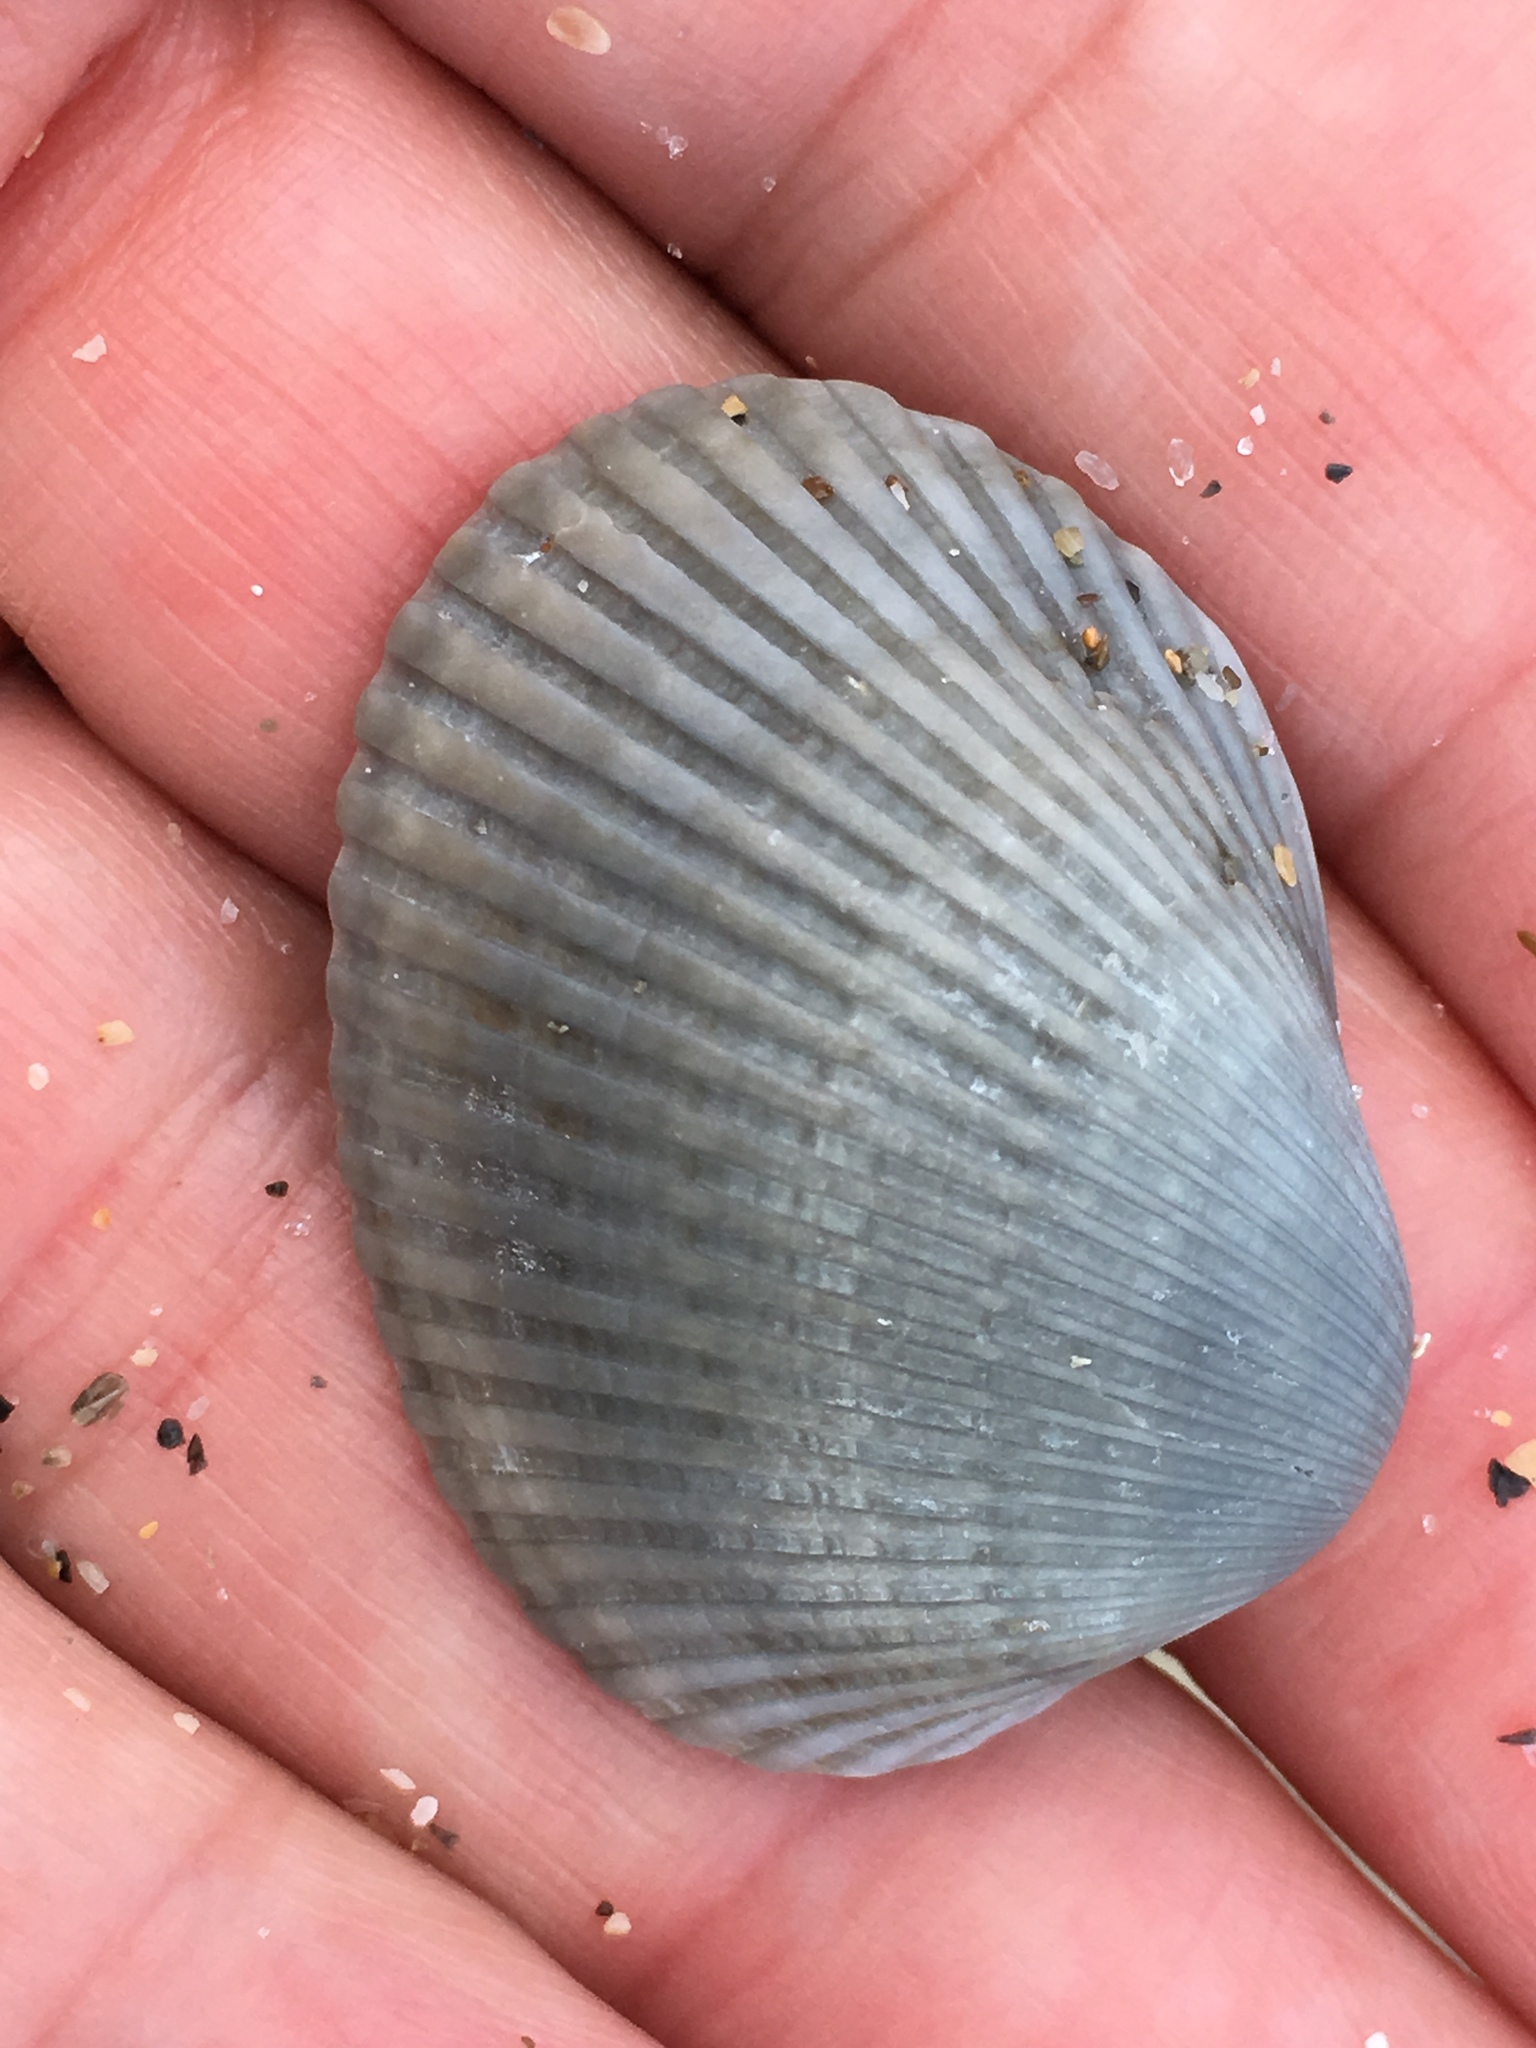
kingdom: Animalia
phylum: Mollusca
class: Bivalvia
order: Arcida
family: Arcidae
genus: Lunarca
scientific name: Lunarca ovalis
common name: Blood ark
